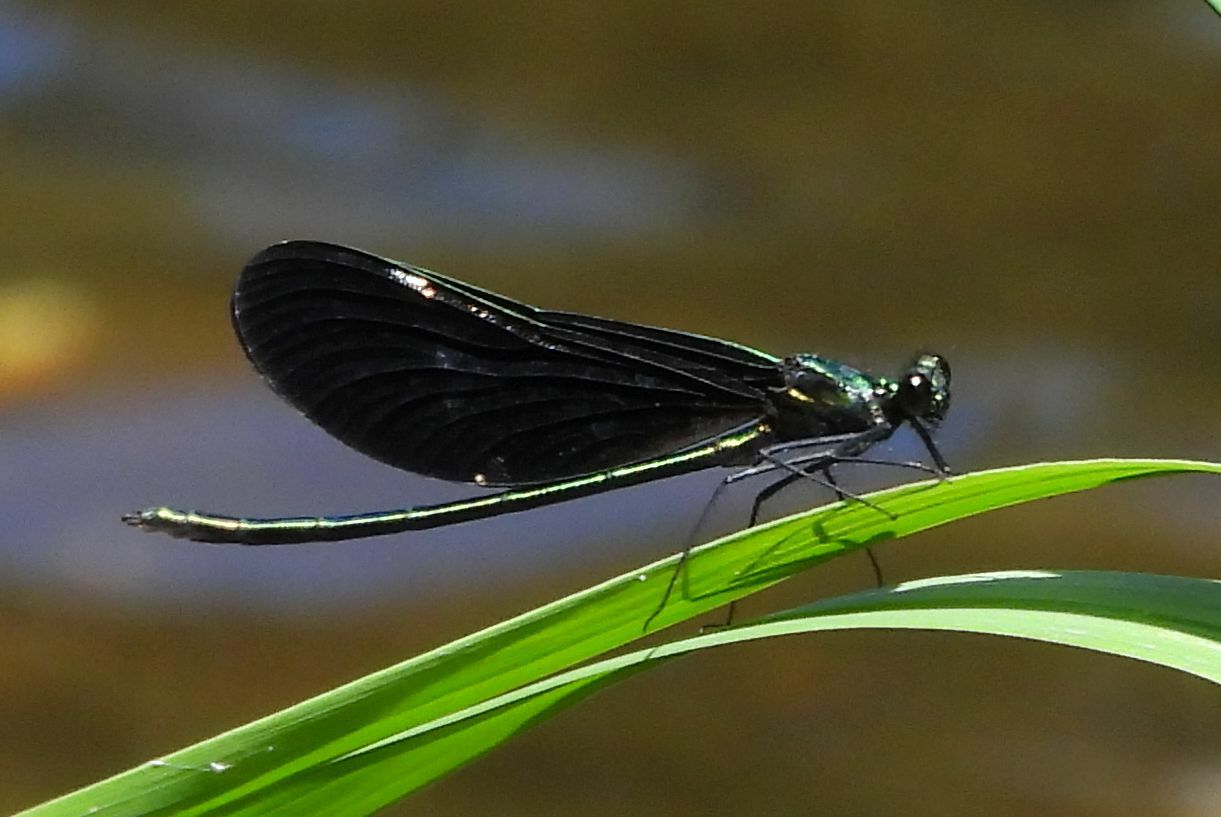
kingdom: Animalia
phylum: Arthropoda
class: Insecta
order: Odonata
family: Calopterygidae
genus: Calopteryx
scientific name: Calopteryx maculata
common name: Ebony jewelwing
